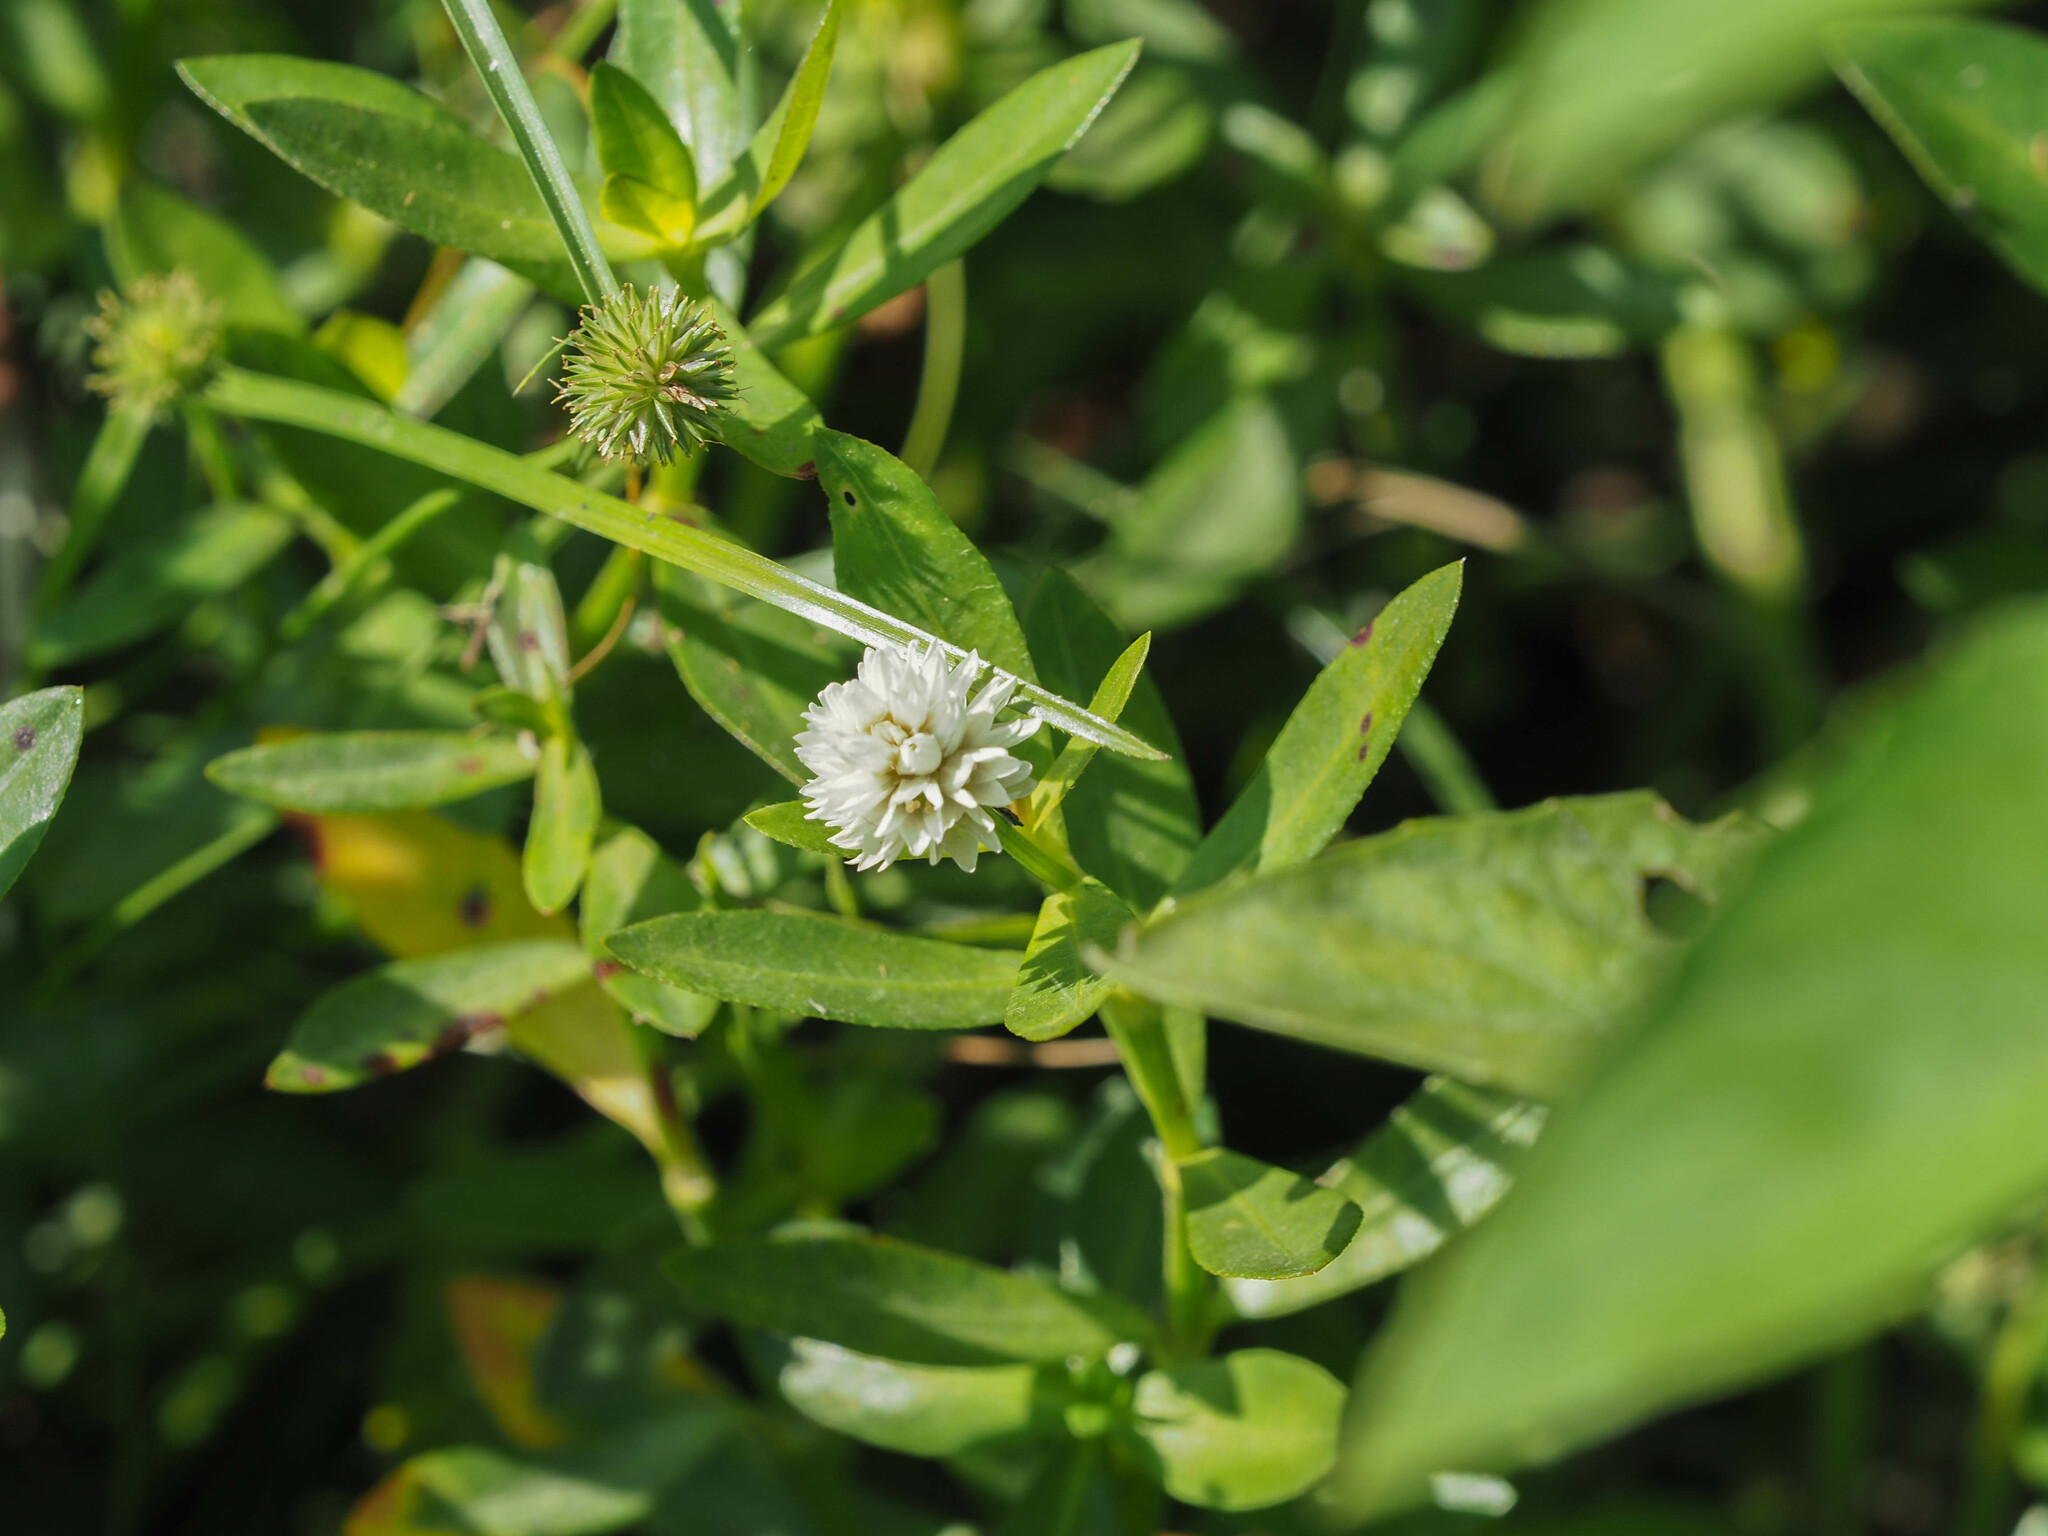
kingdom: Plantae
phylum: Tracheophyta
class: Magnoliopsida
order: Caryophyllales
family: Amaranthaceae
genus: Alternanthera
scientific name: Alternanthera philoxeroides
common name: Alligatorweed
